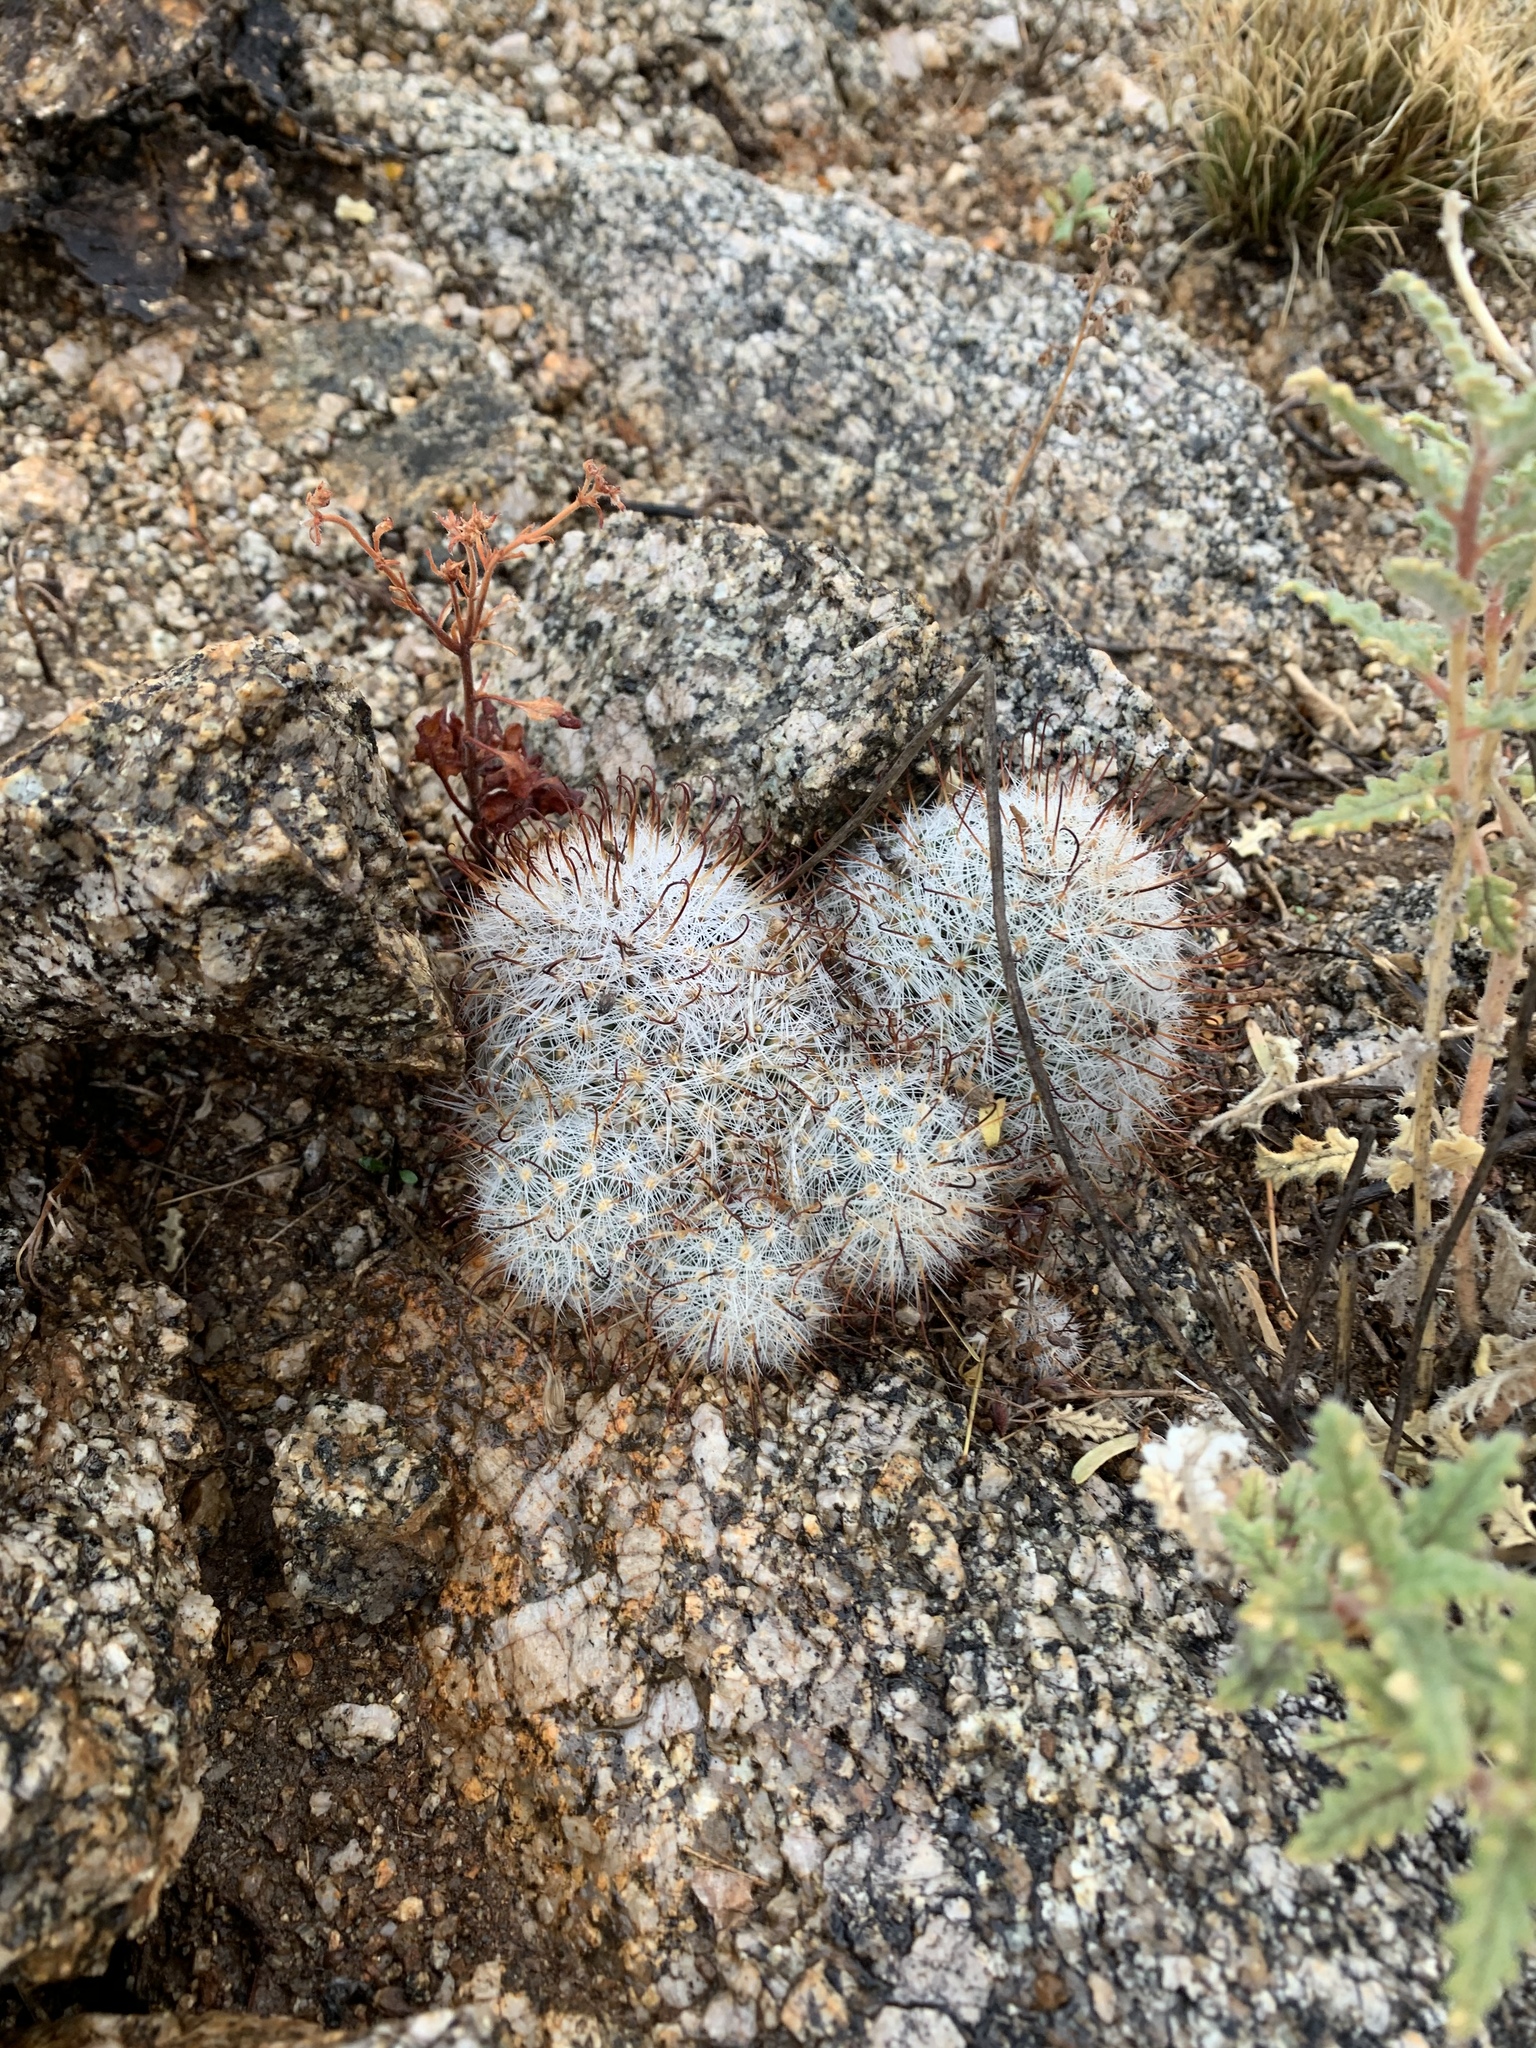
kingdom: Plantae
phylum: Tracheophyta
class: Magnoliopsida
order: Caryophyllales
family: Cactaceae
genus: Cochemiea
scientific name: Cochemiea grahamii
